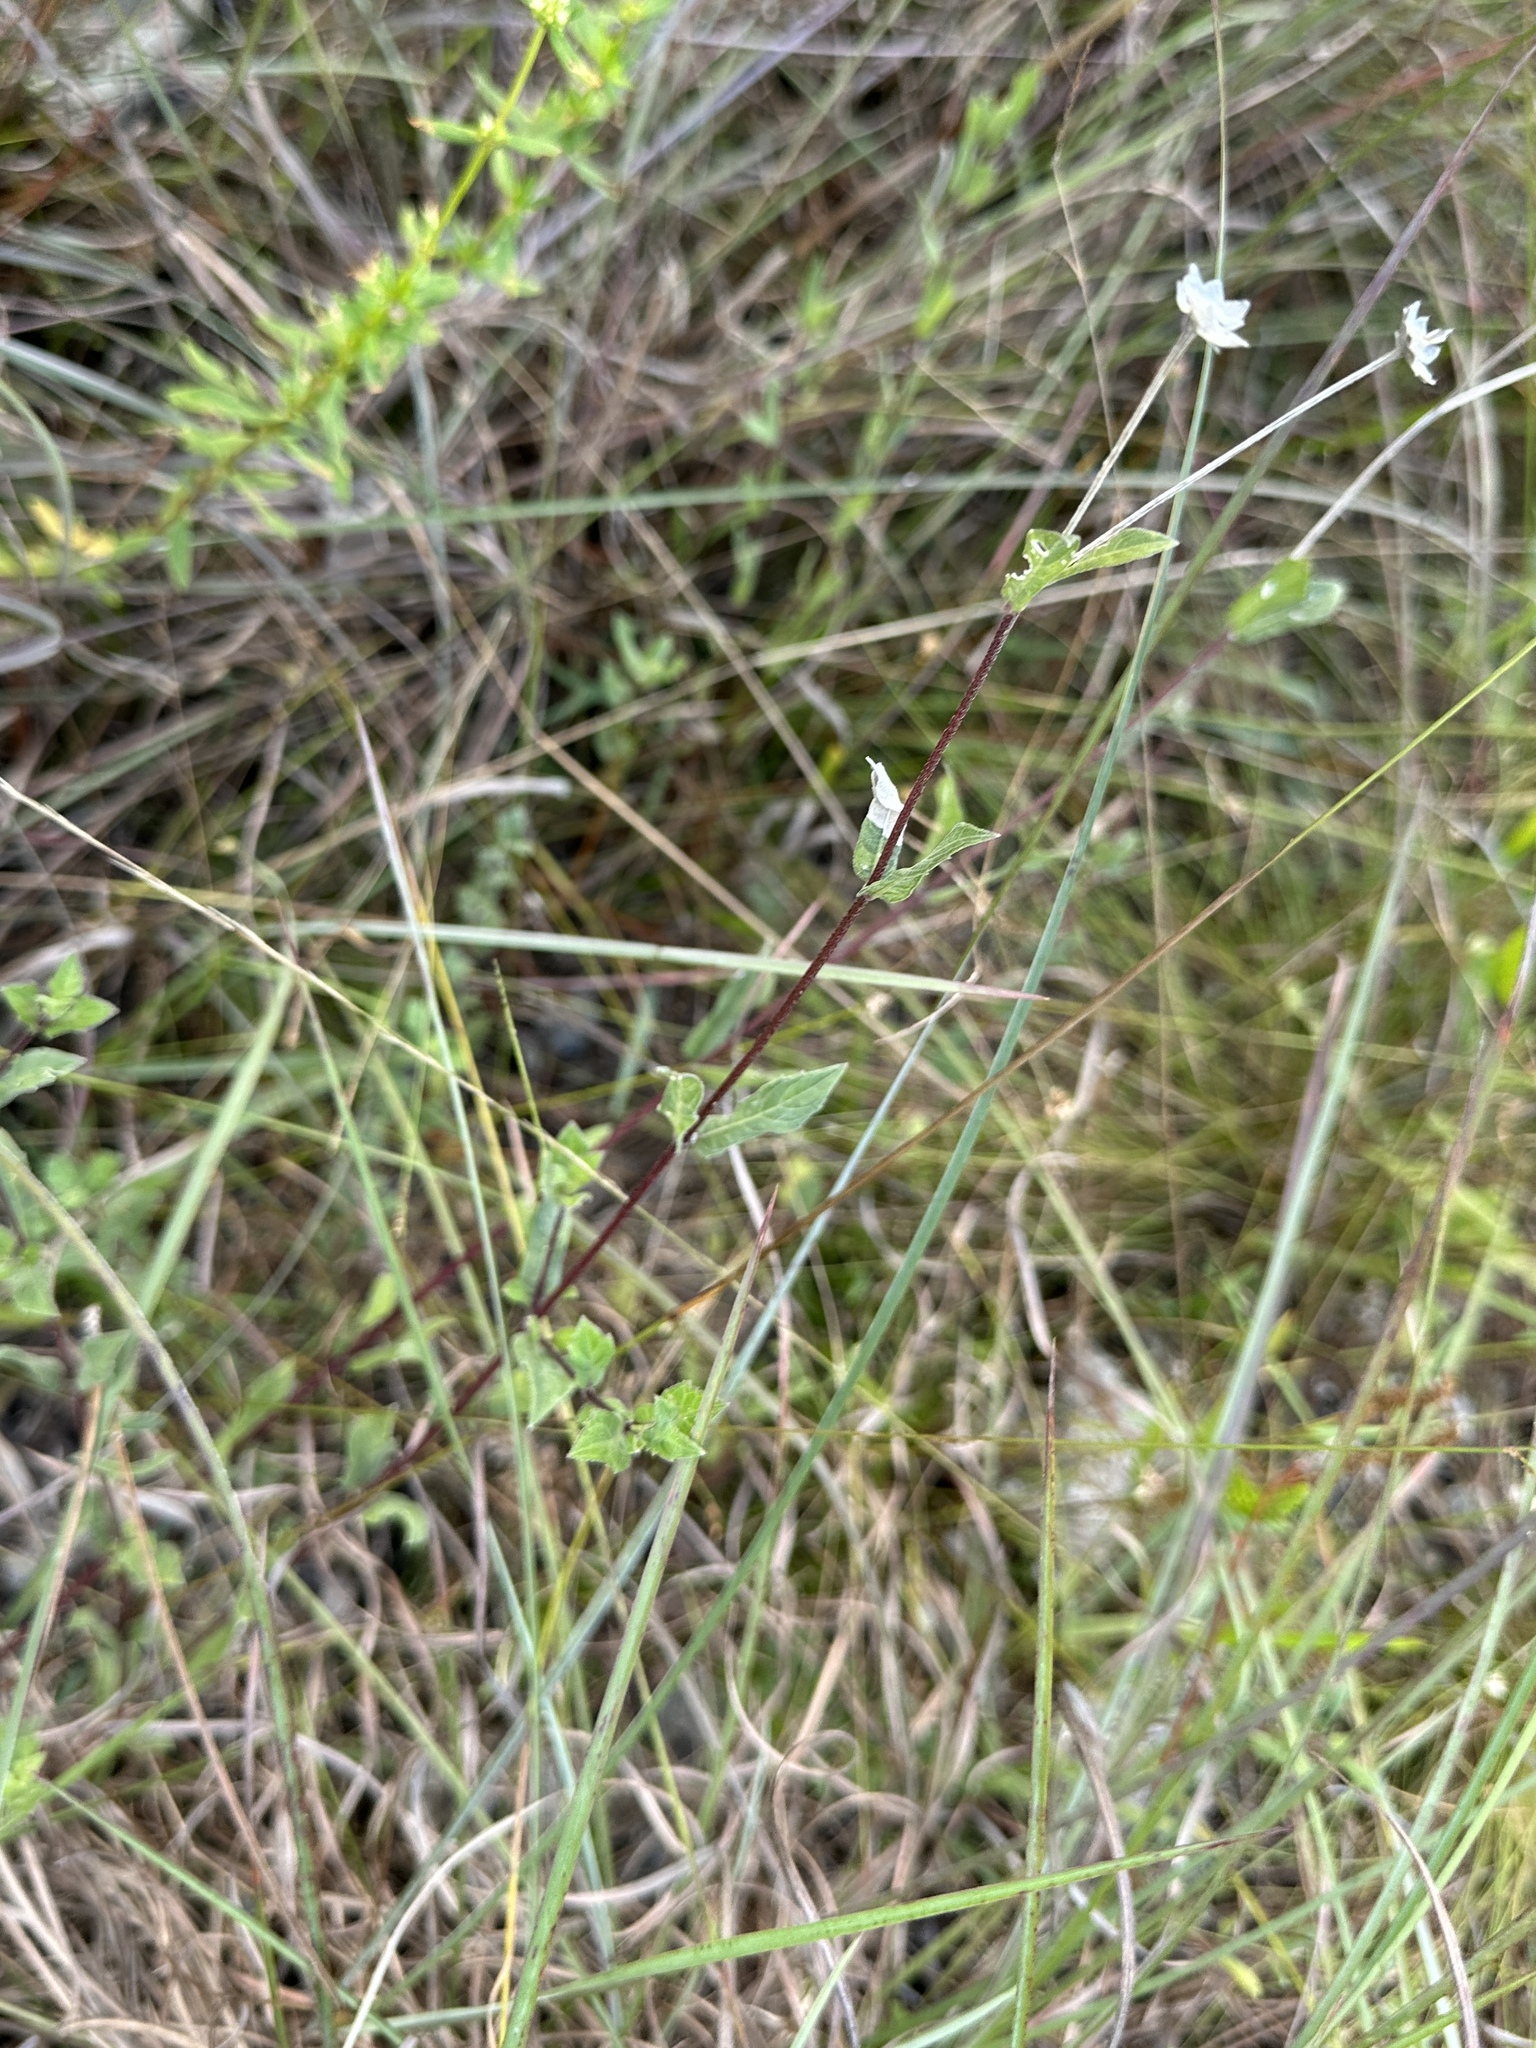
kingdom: Plantae
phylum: Tracheophyta
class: Magnoliopsida
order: Asterales
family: Asteraceae
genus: Melanthera
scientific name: Melanthera angustifolia
